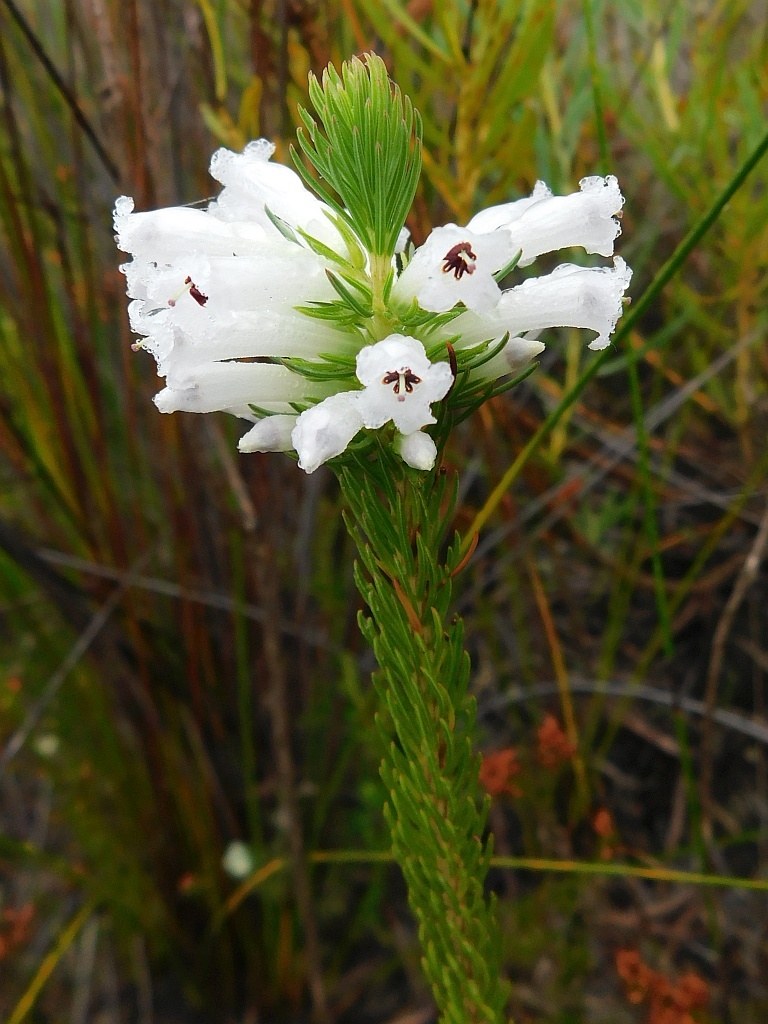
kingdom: Plantae
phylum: Tracheophyta
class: Magnoliopsida
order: Ericales
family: Ericaceae
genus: Erica
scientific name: Erica pinea
